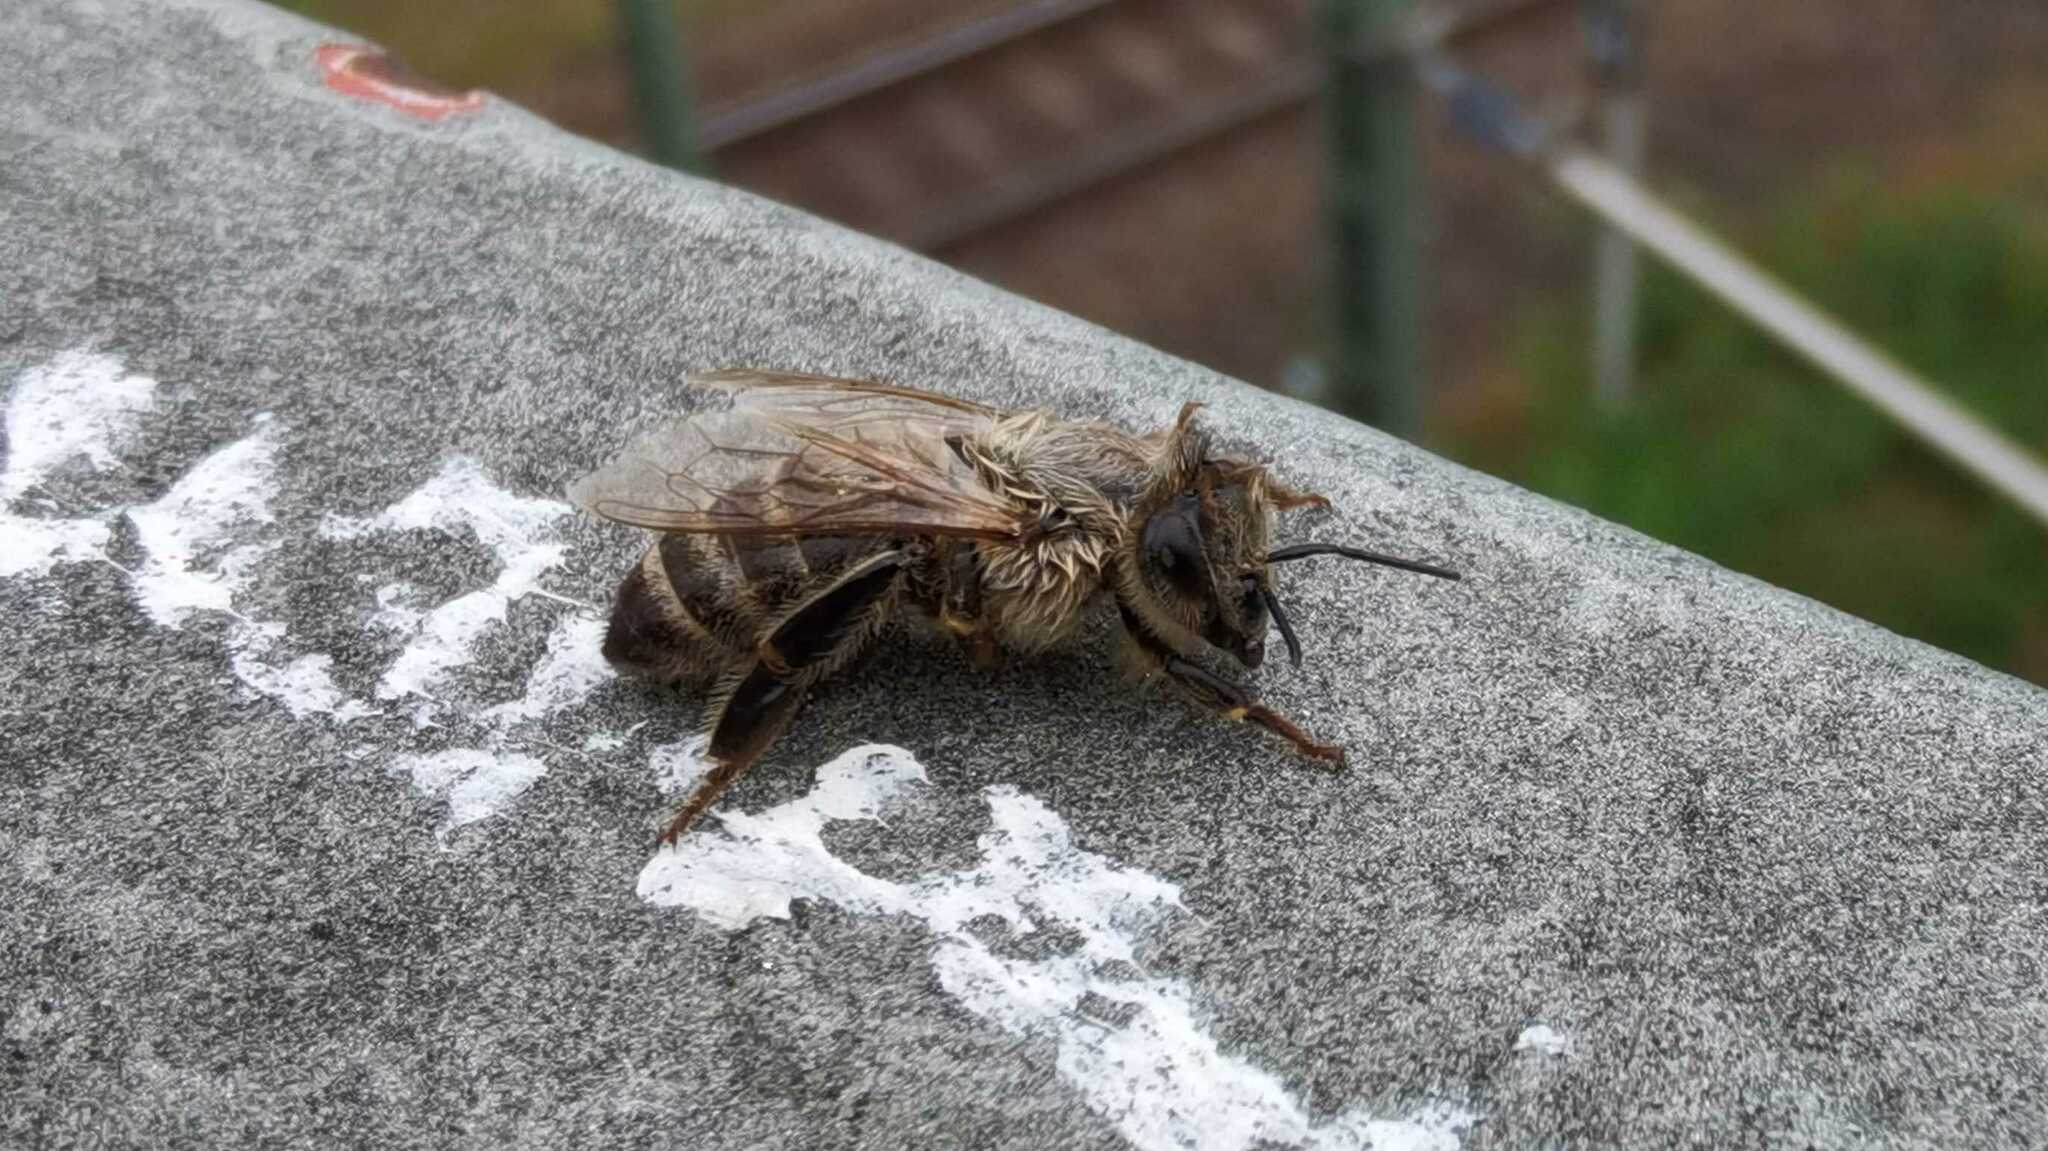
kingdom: Animalia
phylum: Arthropoda
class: Insecta
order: Hymenoptera
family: Apidae
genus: Apis
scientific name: Apis mellifera
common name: Honey bee
